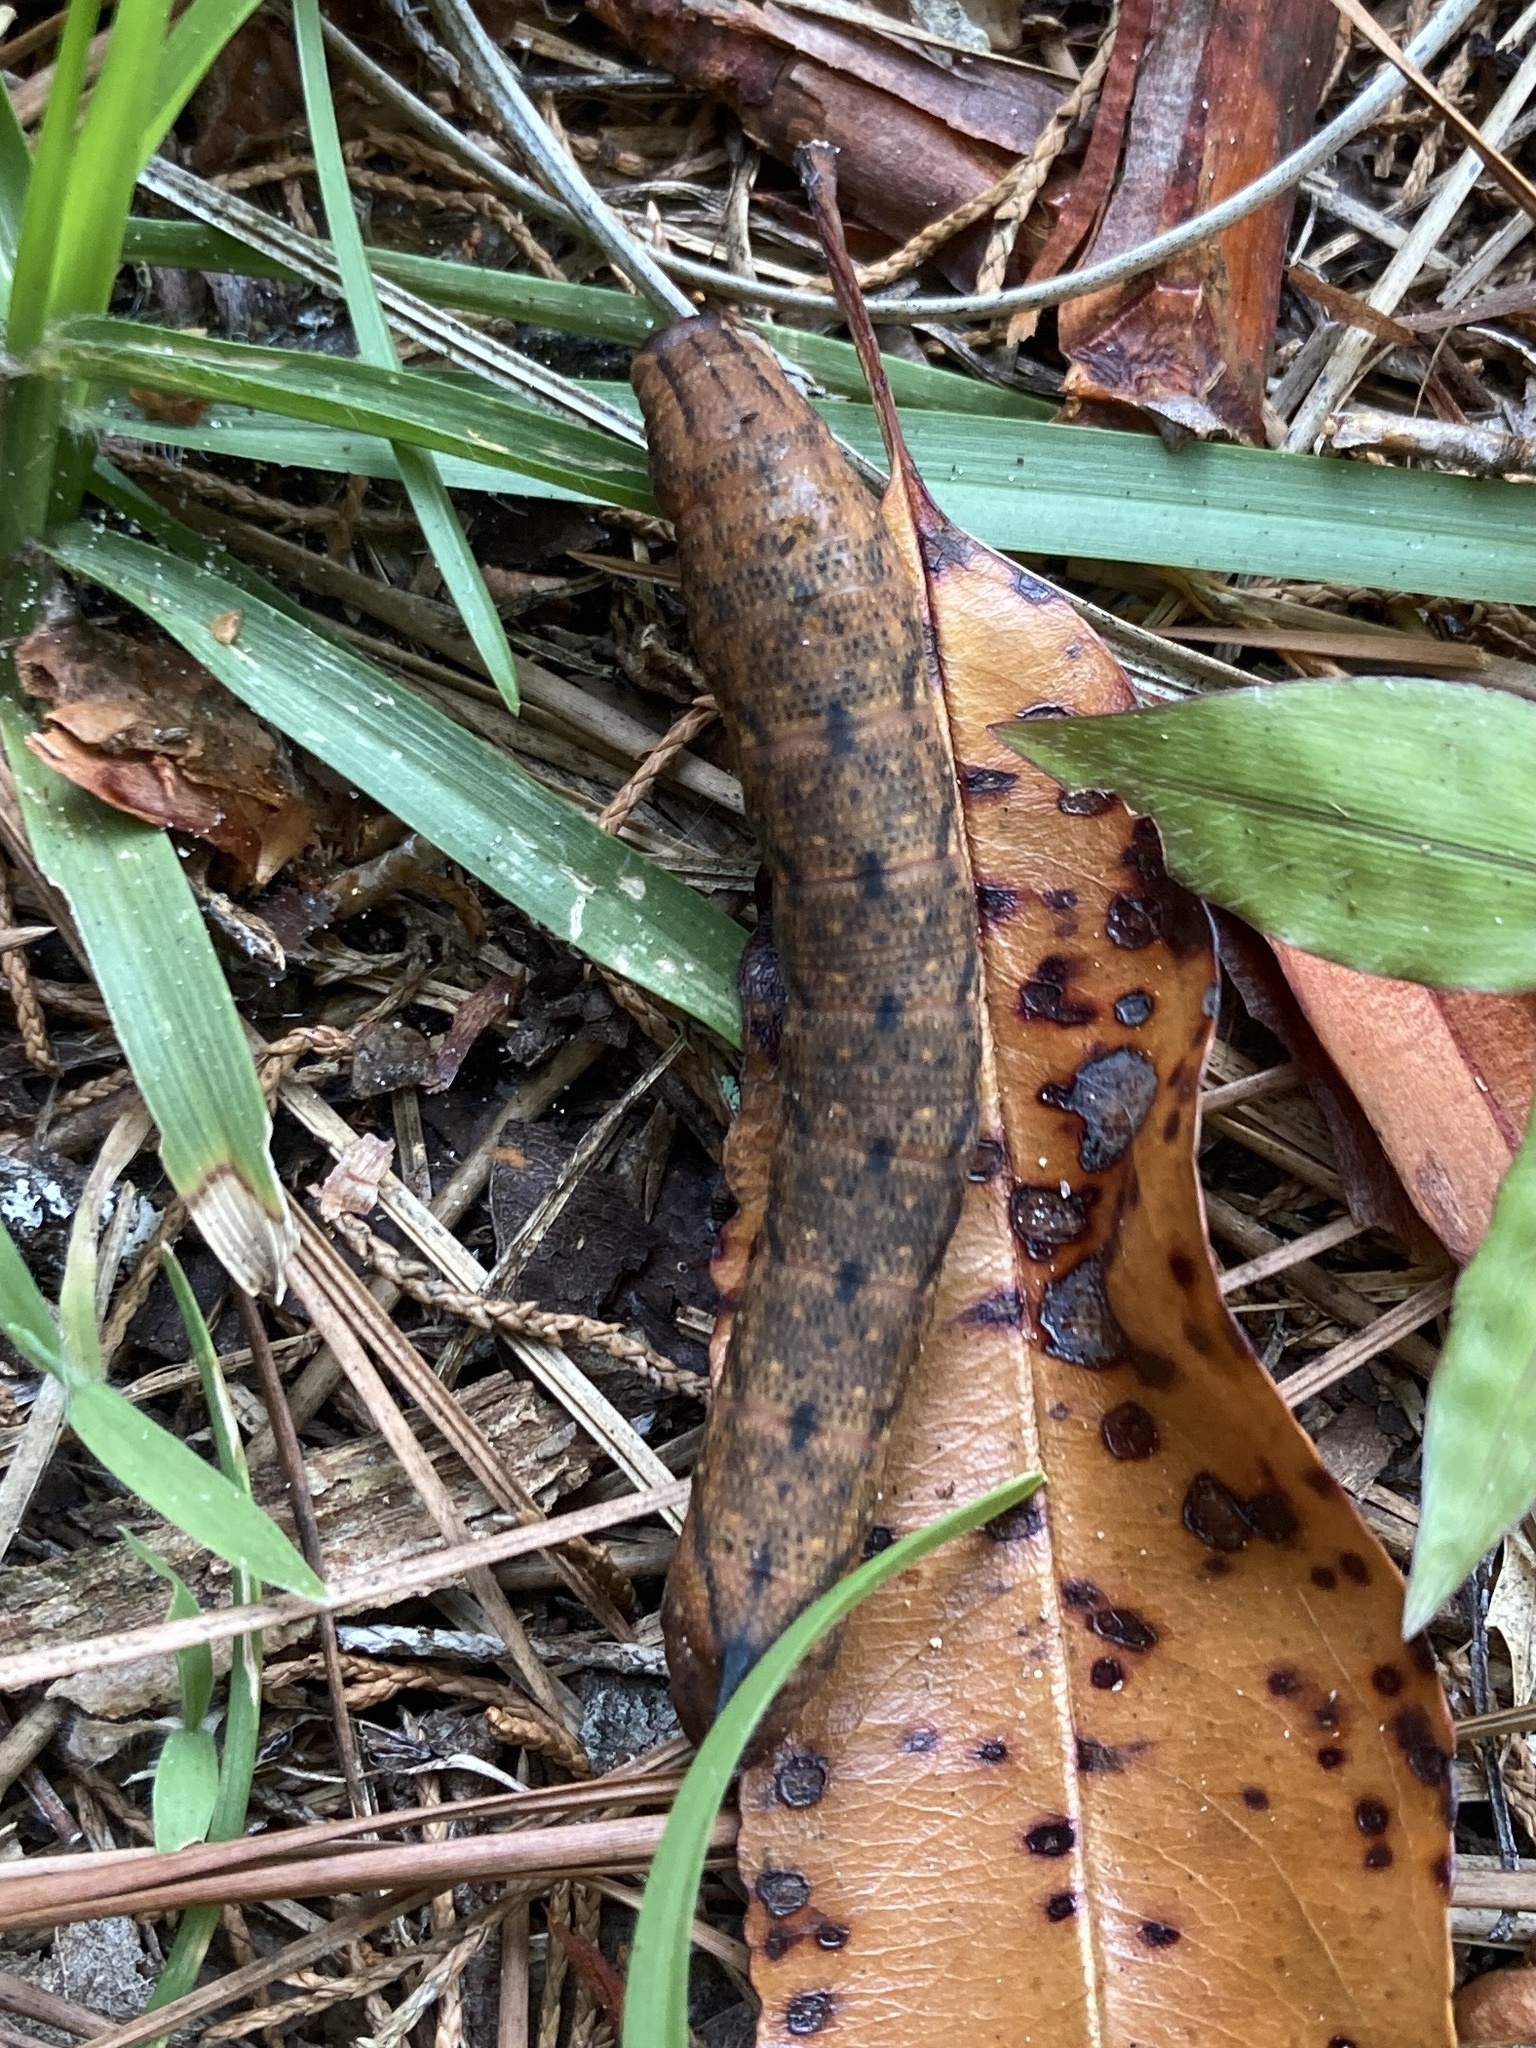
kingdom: Animalia
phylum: Arthropoda
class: Insecta
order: Lepidoptera
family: Sphingidae
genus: Amphion
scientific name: Amphion floridensis
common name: Nessus sphinx
